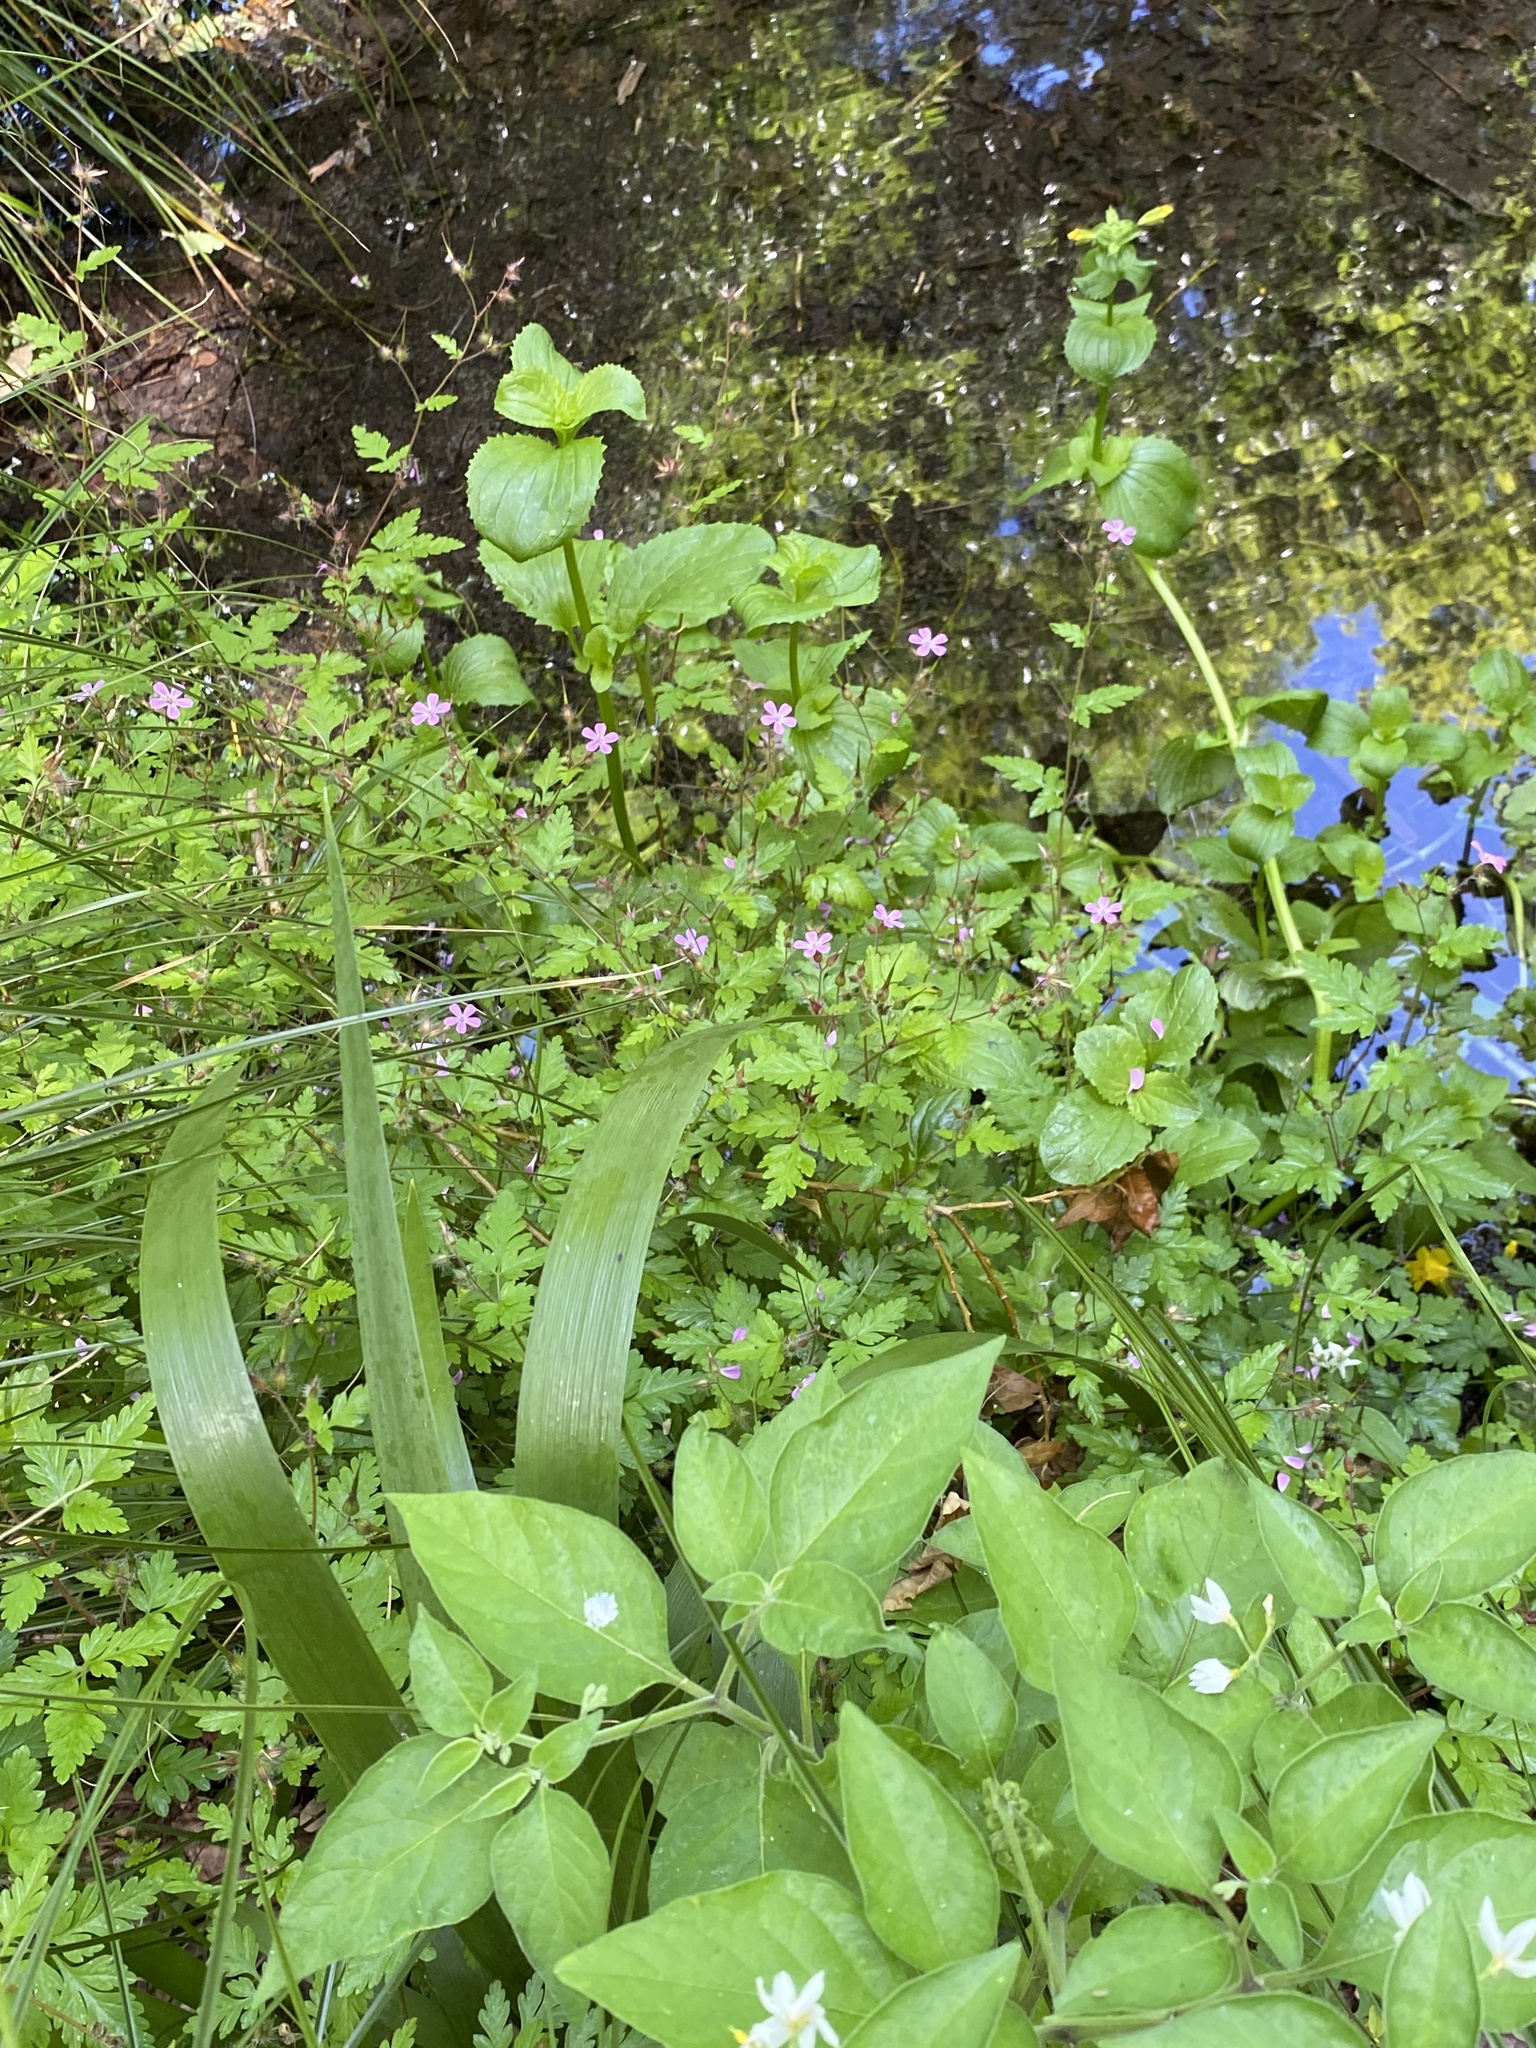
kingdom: Plantae
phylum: Tracheophyta
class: Magnoliopsida
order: Geraniales
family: Geraniaceae
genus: Geranium
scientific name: Geranium robertianum
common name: Herb-robert
